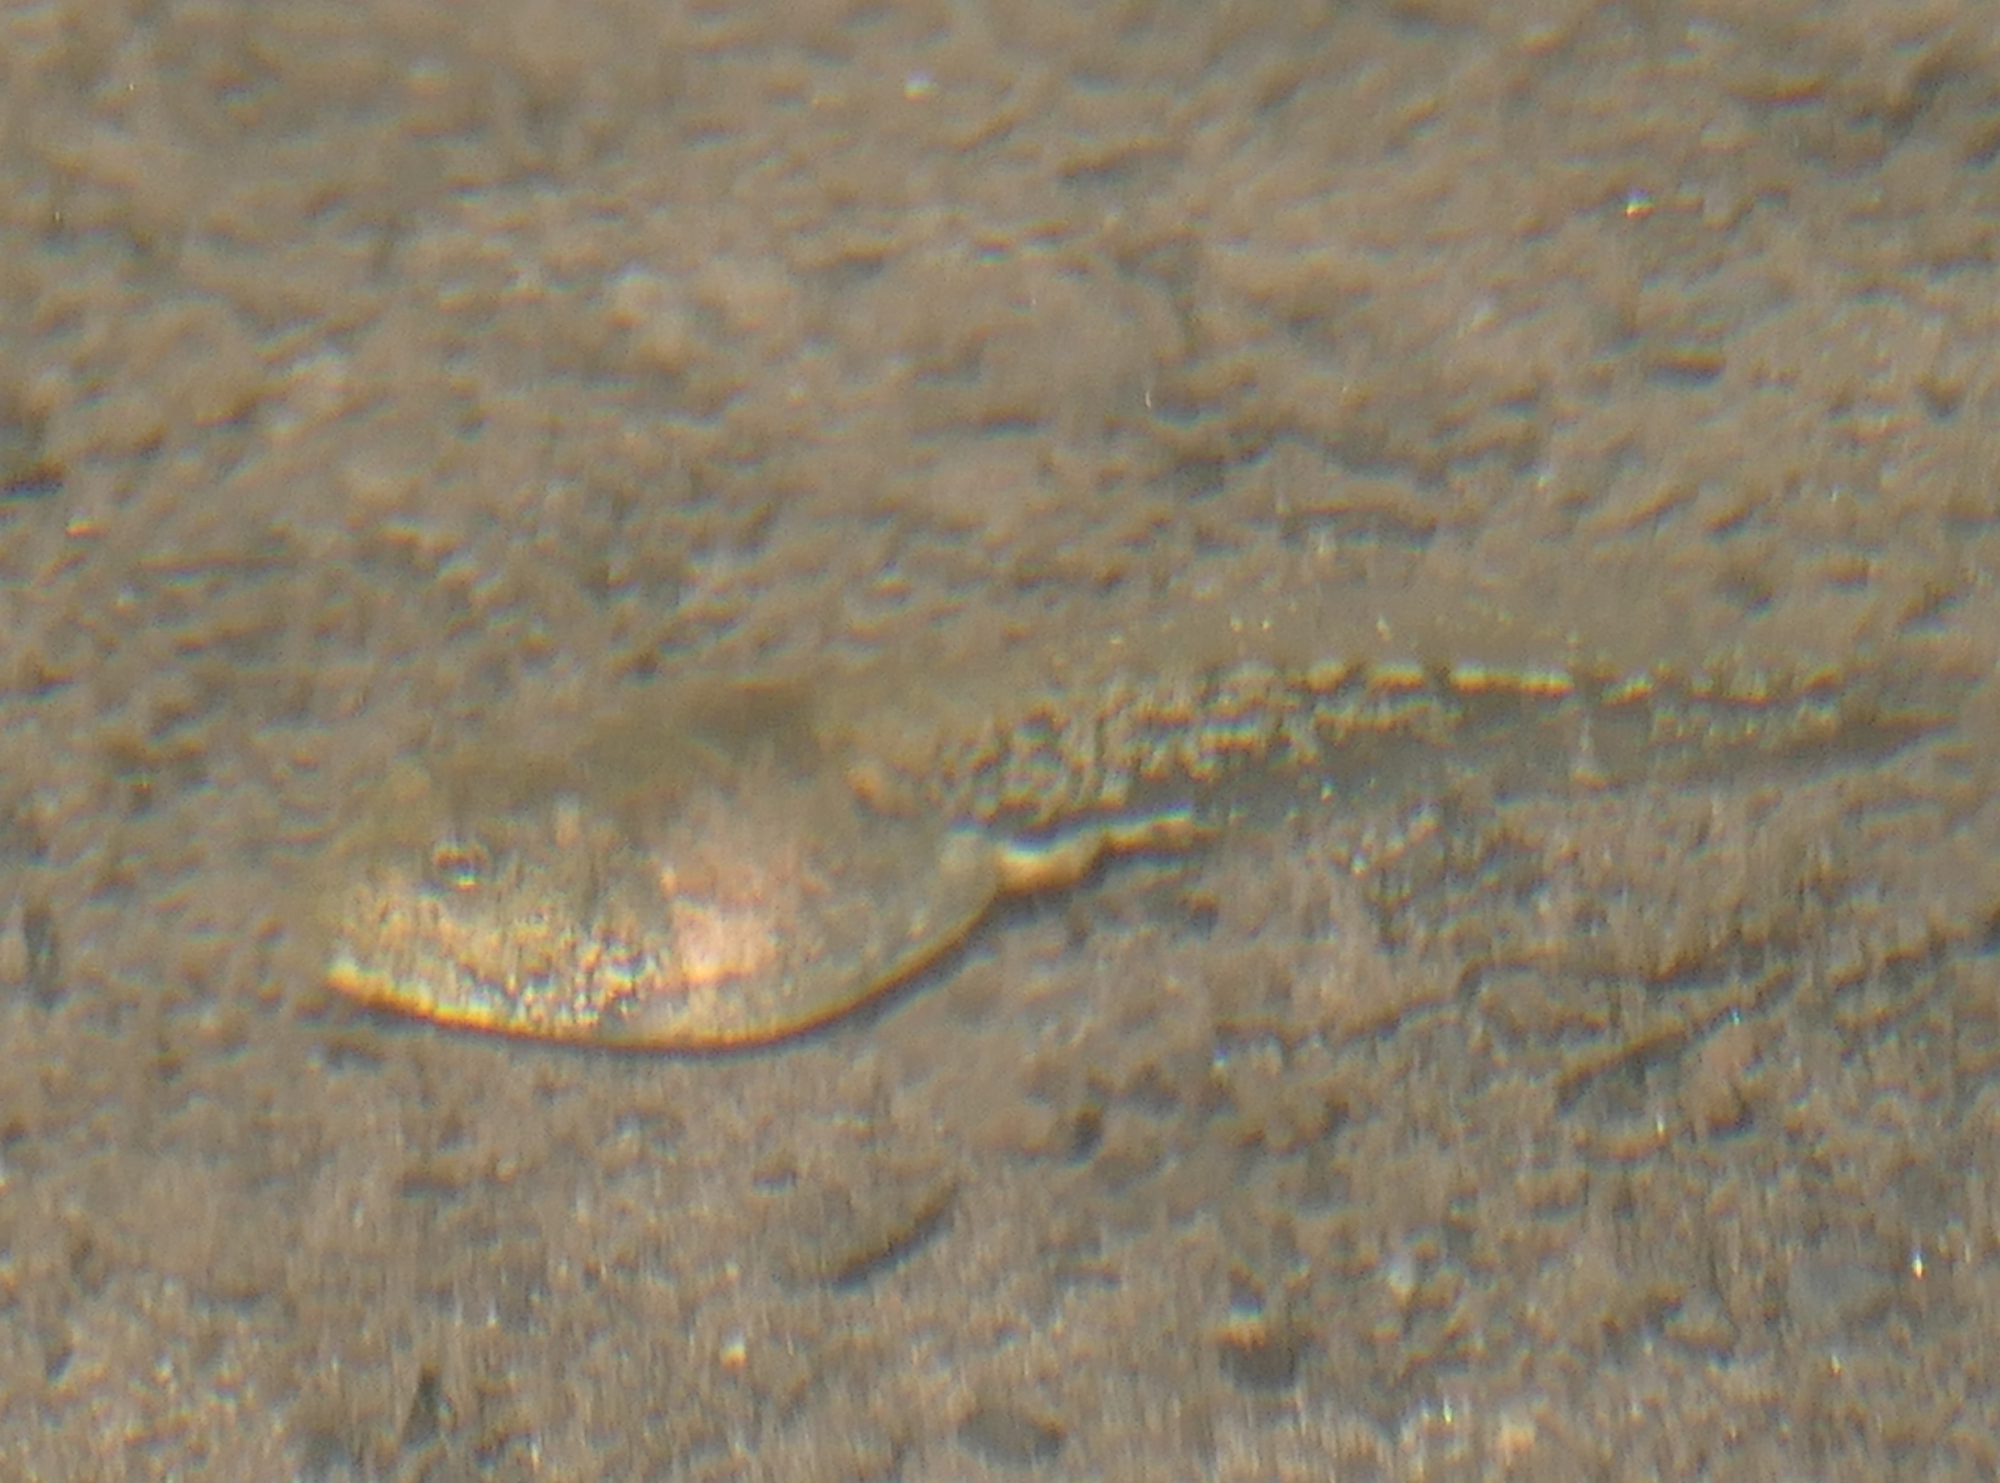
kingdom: Animalia
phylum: Chordata
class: Amphibia
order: Anura
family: Bufonidae
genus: Anaxyrus
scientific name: Anaxyrus microscaphus
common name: Arizona toad
